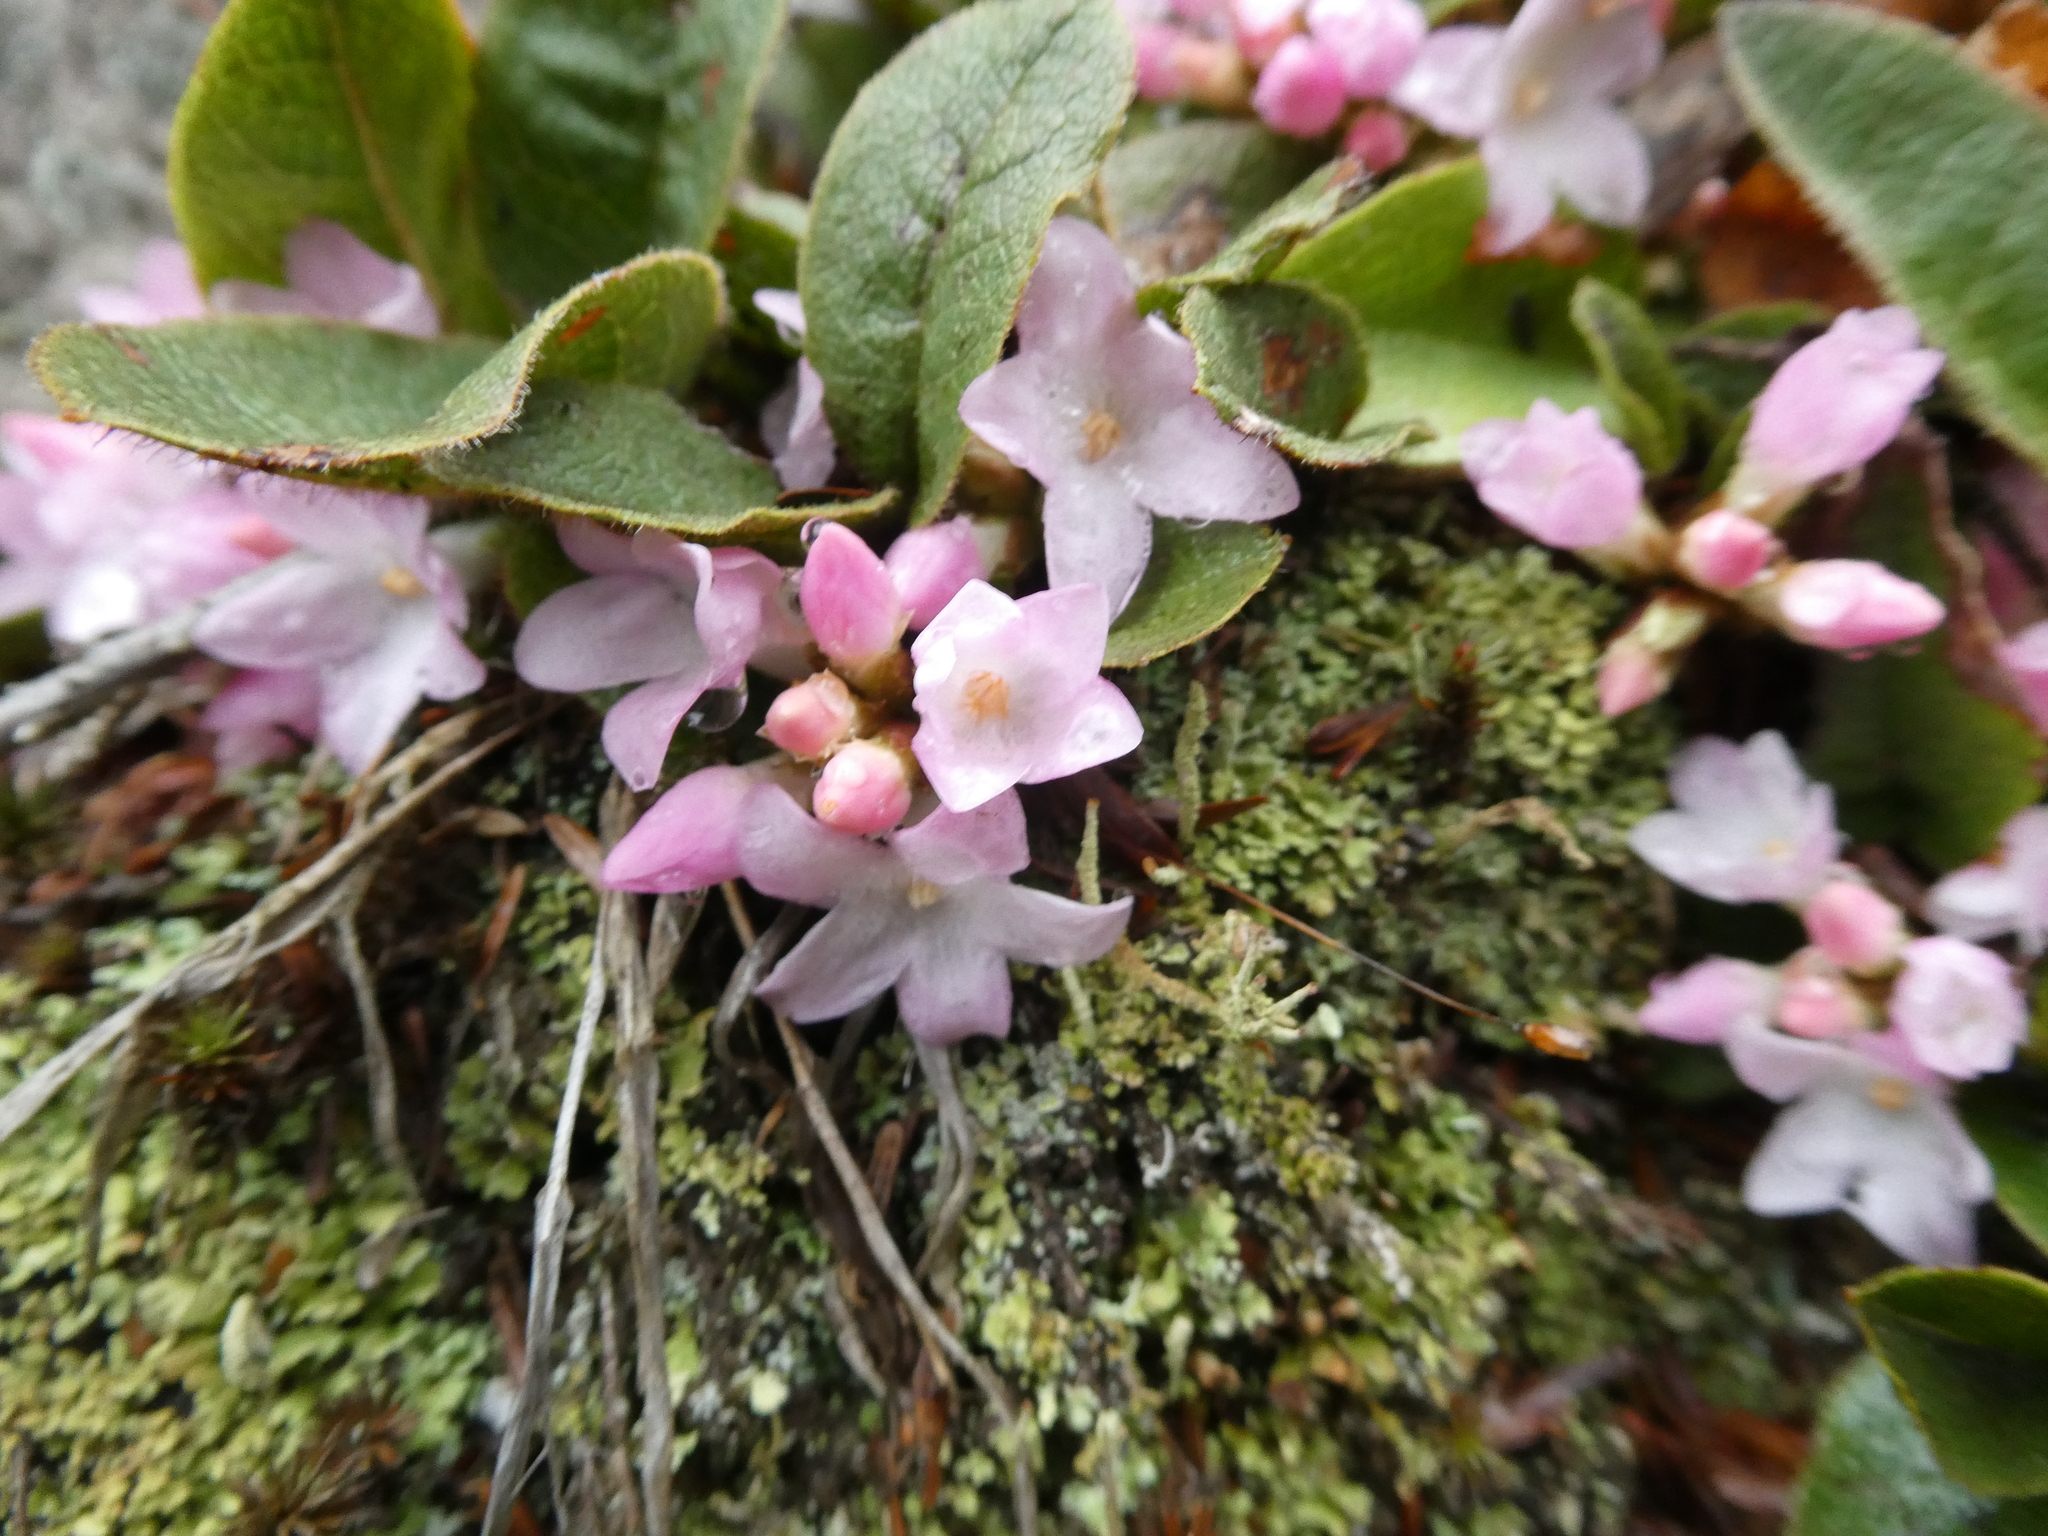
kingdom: Plantae
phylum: Tracheophyta
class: Magnoliopsida
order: Ericales
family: Ericaceae
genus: Epigaea
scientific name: Epigaea repens
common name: Gravelroot
